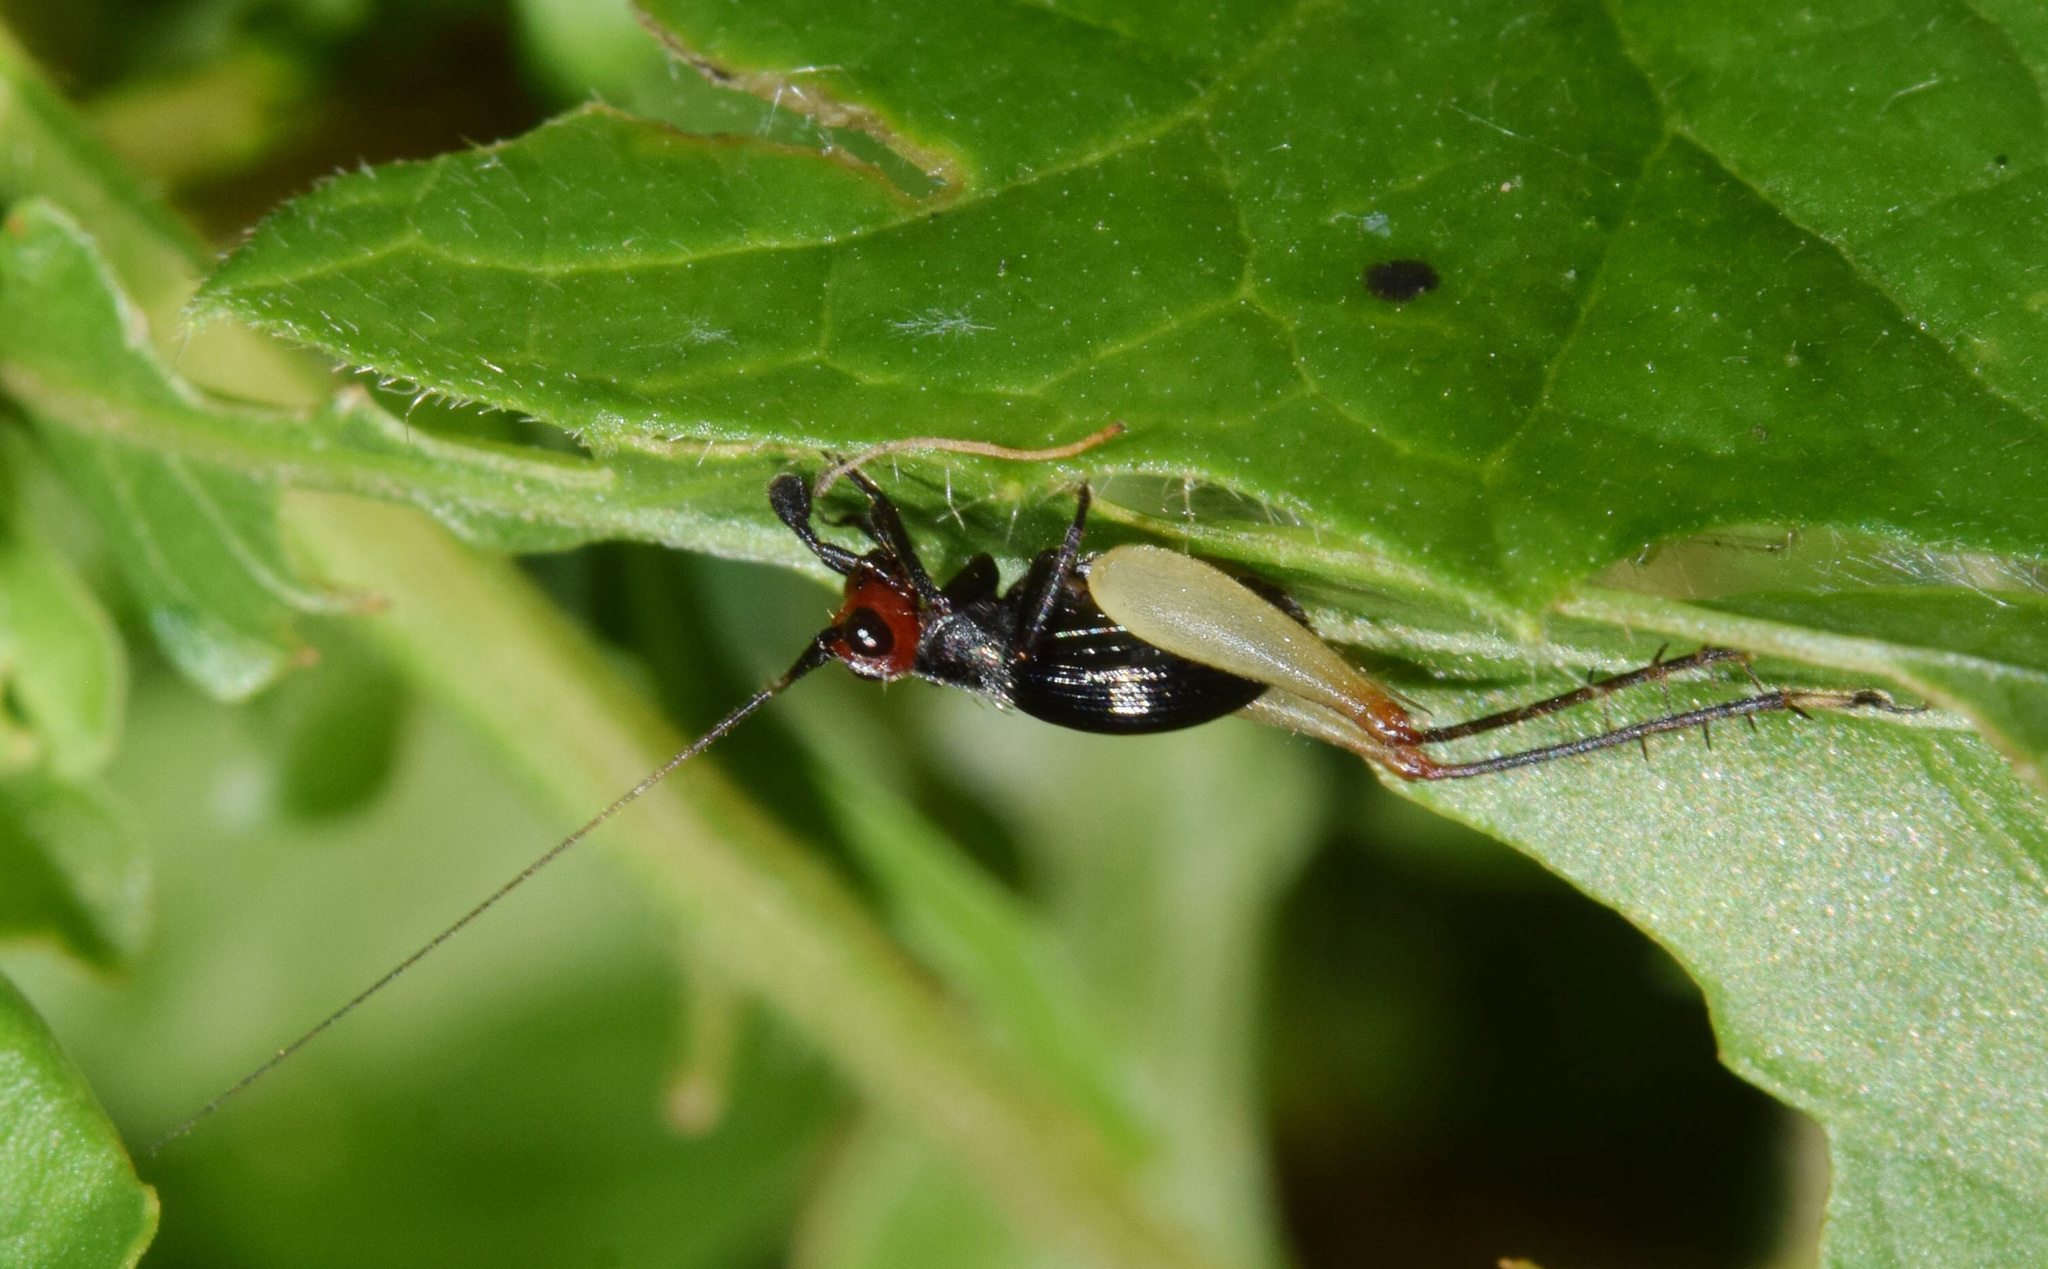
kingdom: Animalia
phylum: Arthropoda
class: Insecta
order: Orthoptera
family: Trigonidiidae
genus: Trigonidium
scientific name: Trigonidium erythrocephalum
